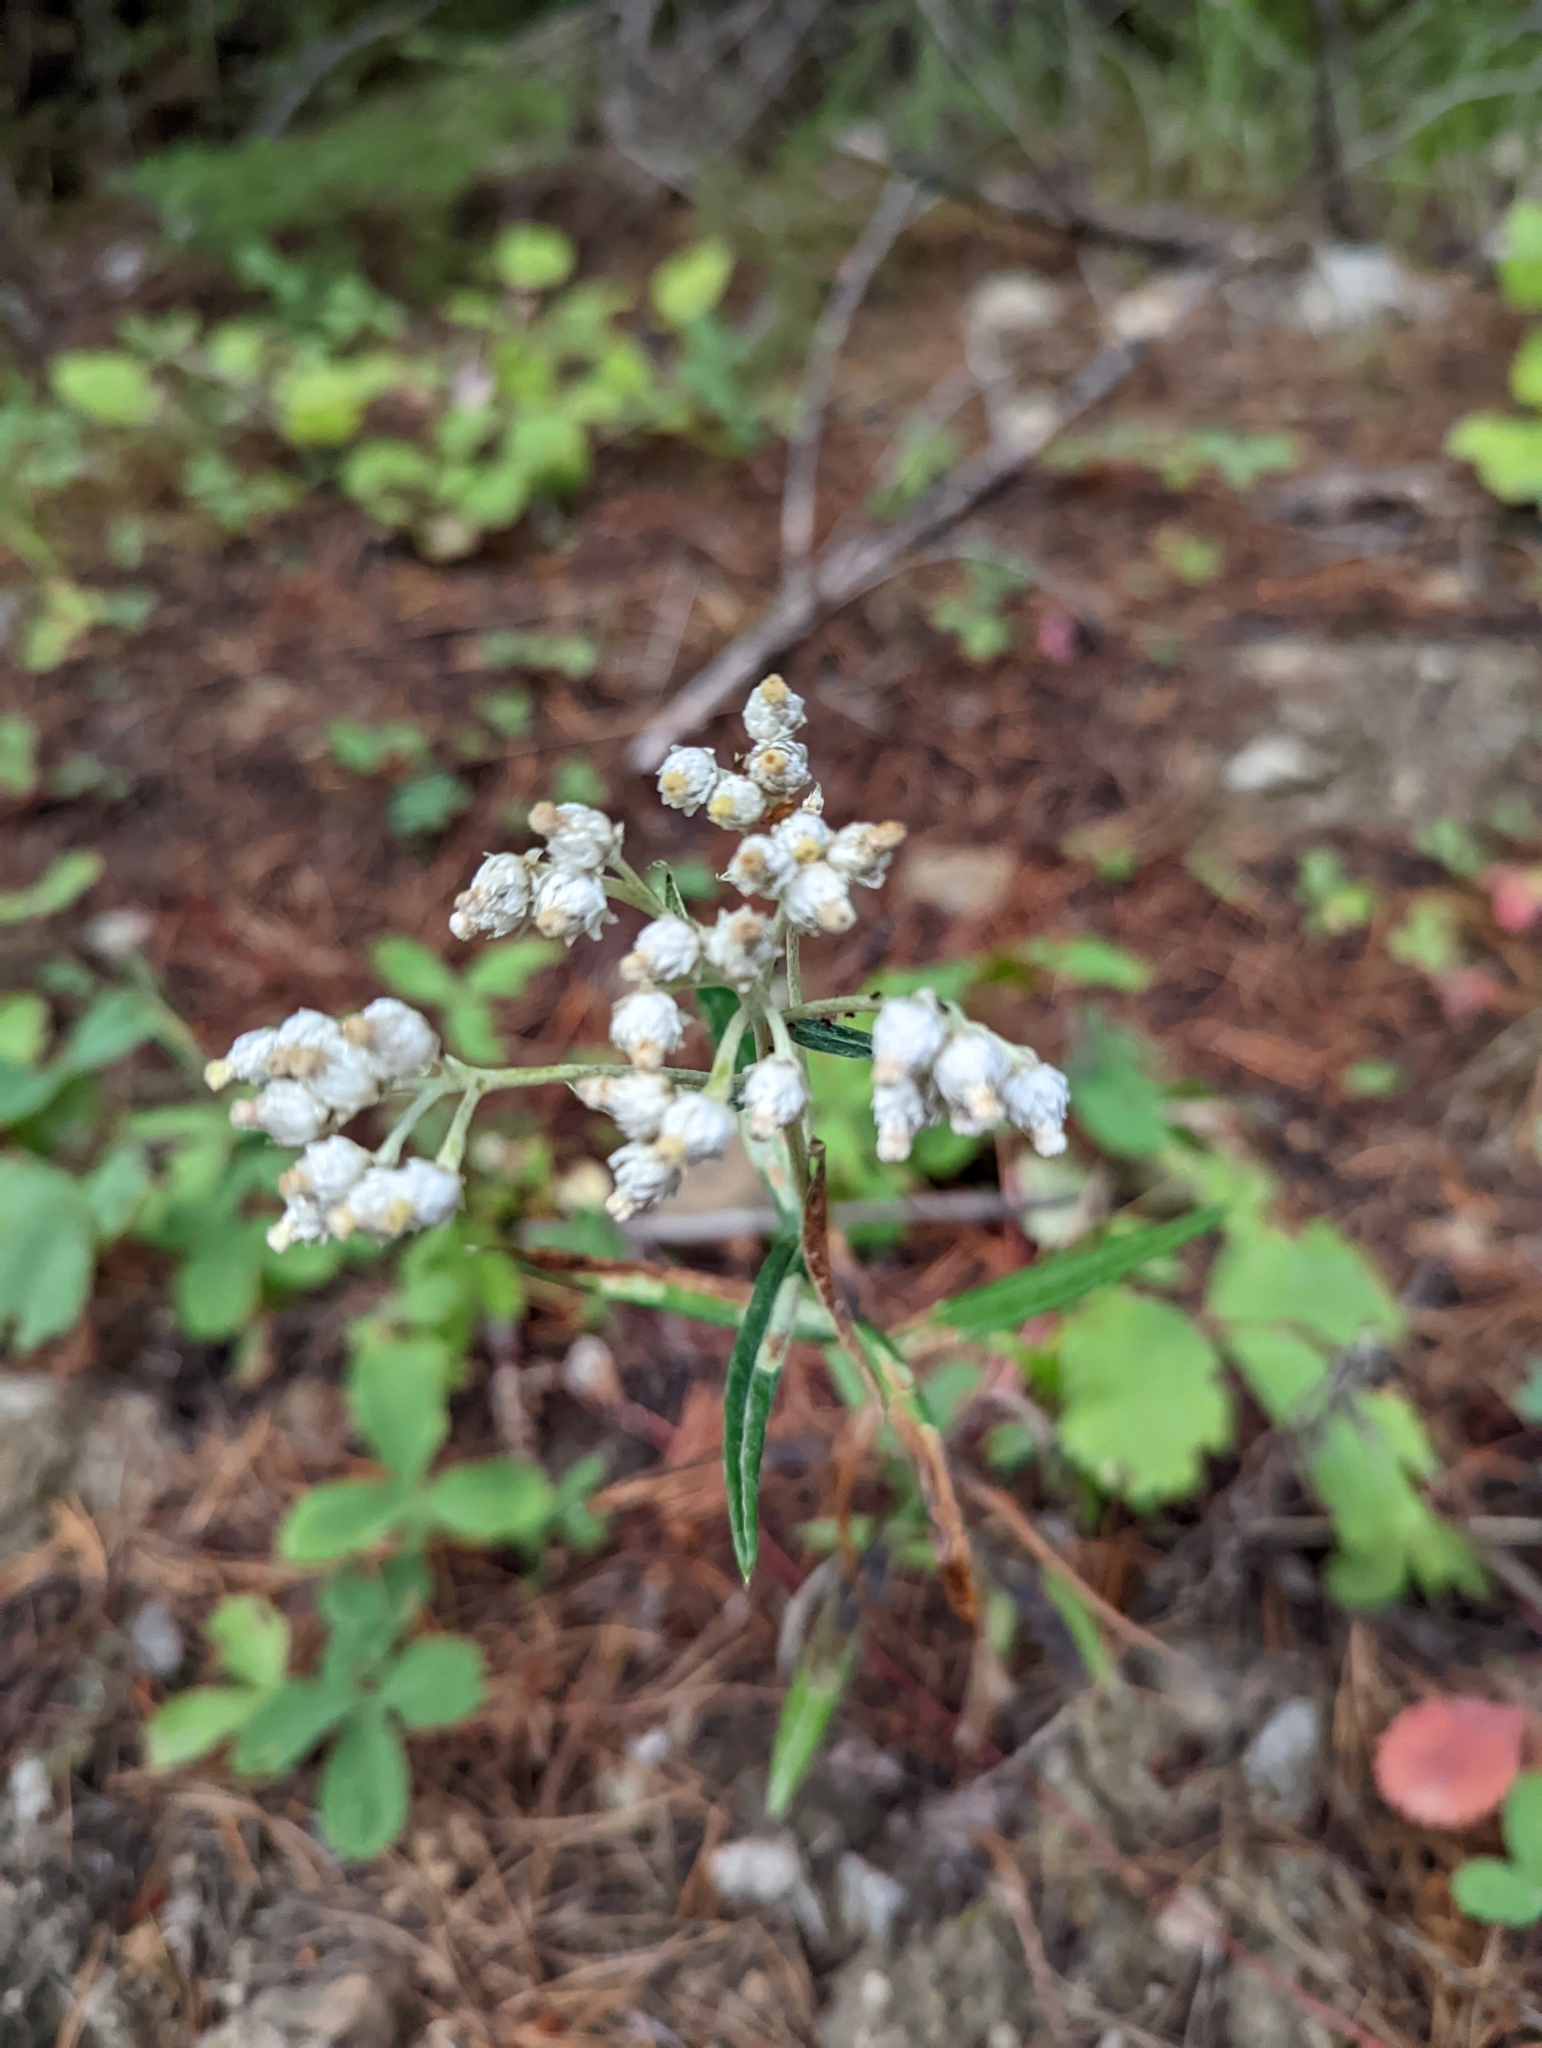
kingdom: Plantae
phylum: Tracheophyta
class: Magnoliopsida
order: Asterales
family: Asteraceae
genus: Anaphalis
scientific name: Anaphalis margaritacea
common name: Pearly everlasting
